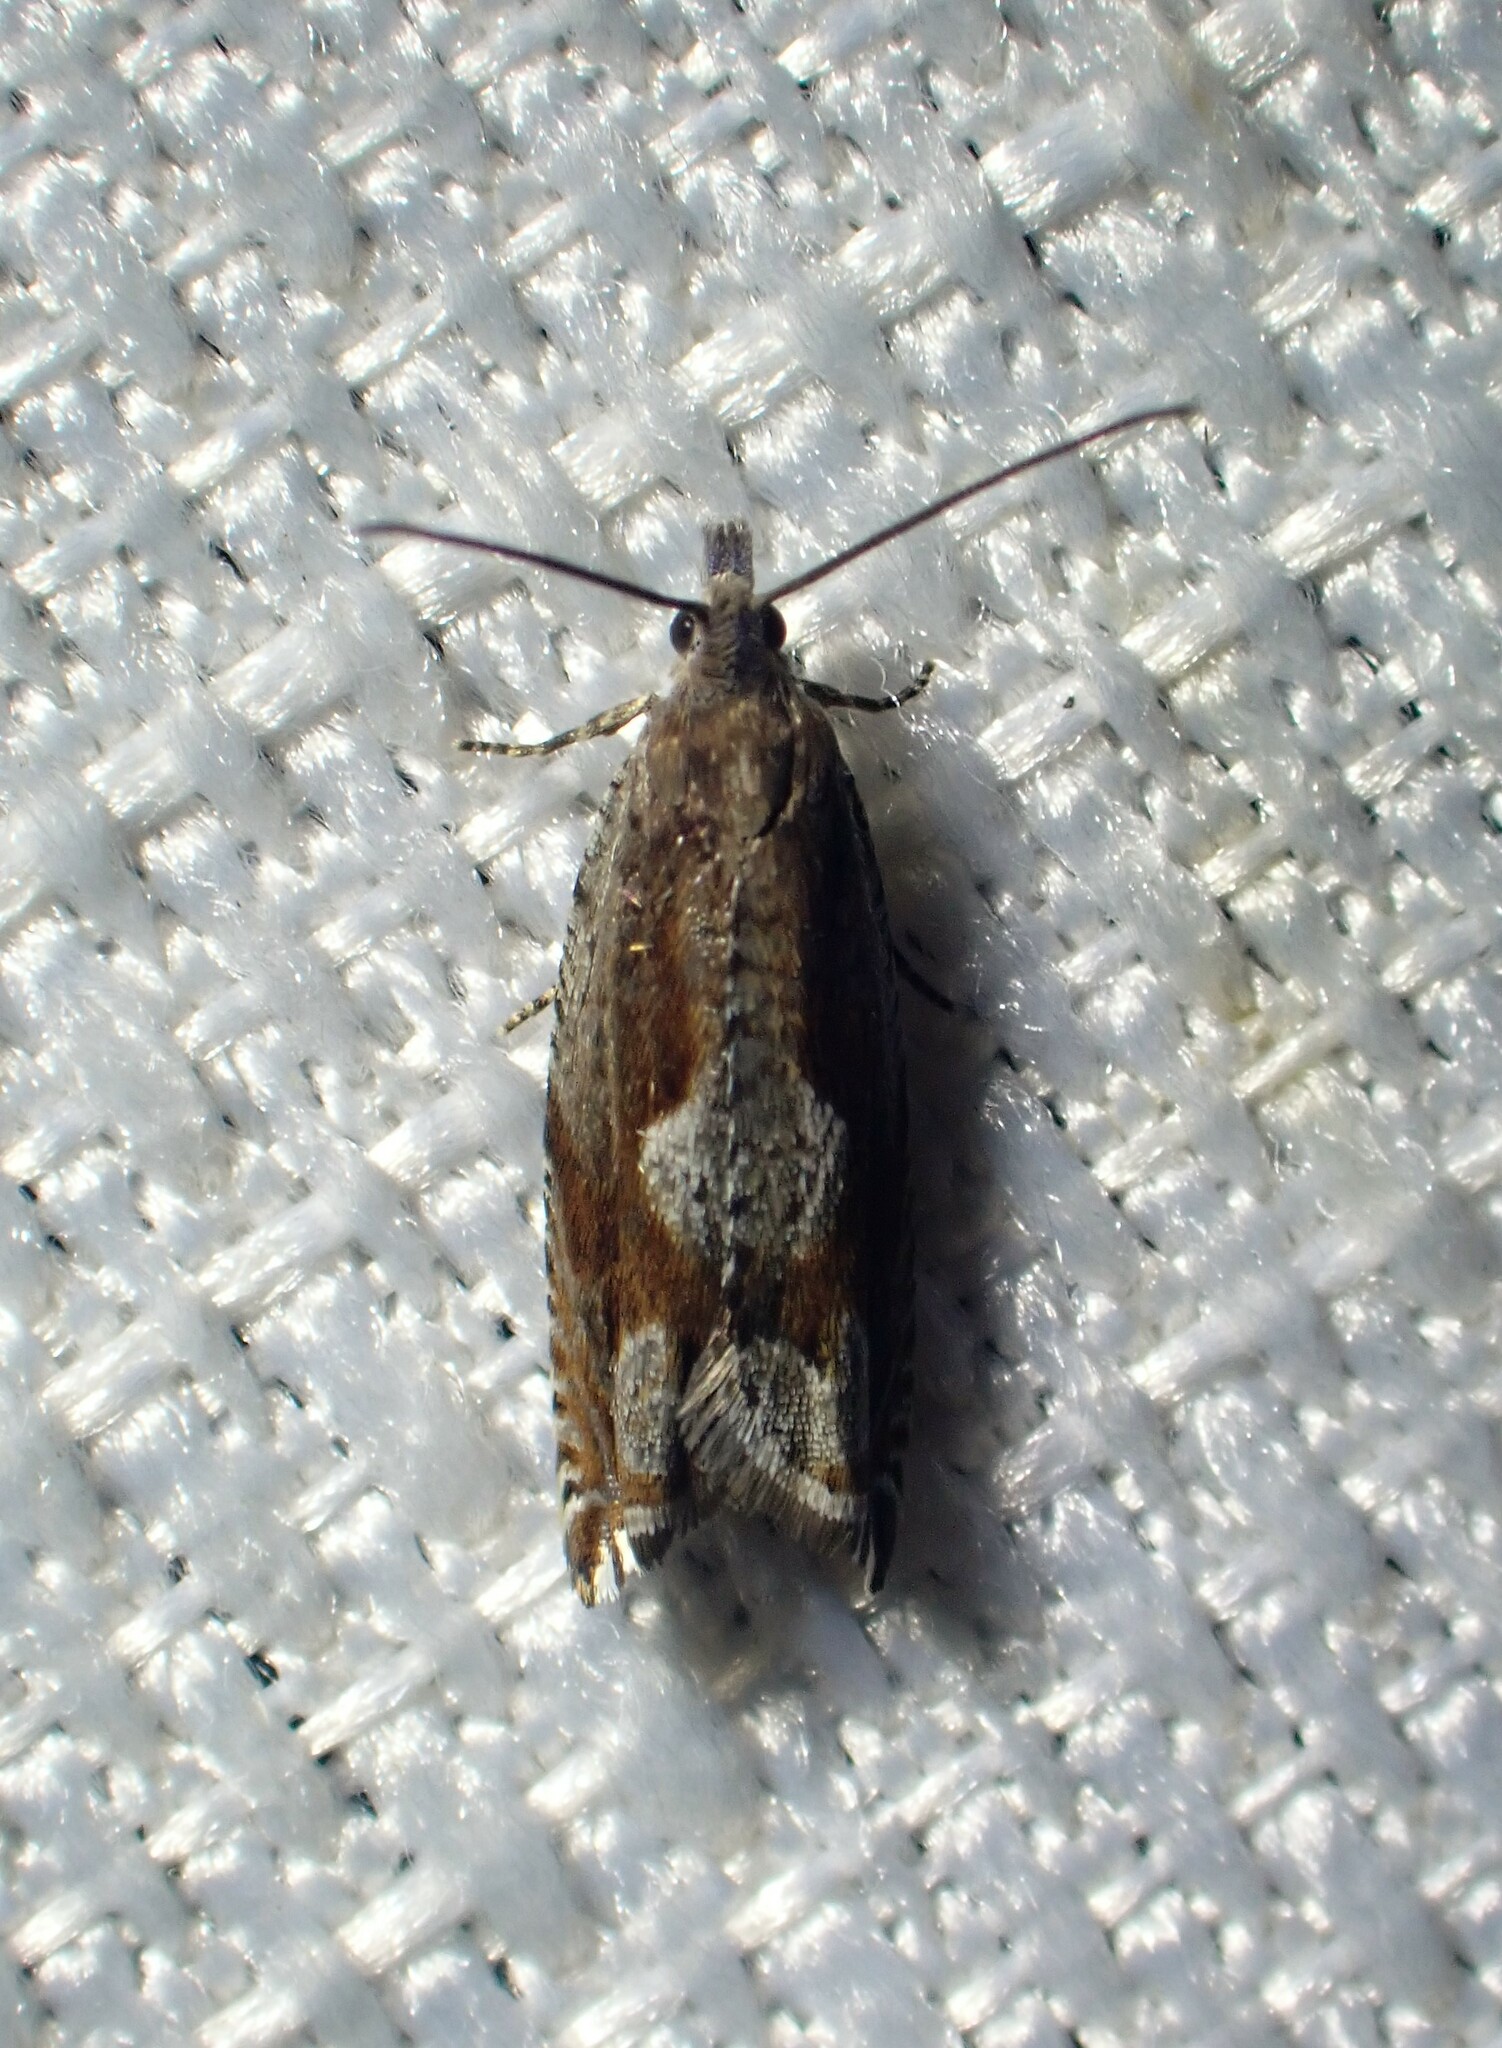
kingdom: Animalia
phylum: Arthropoda
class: Insecta
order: Lepidoptera
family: Tortricidae
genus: Ancylis
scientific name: Ancylis uncella
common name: Bridge roller
